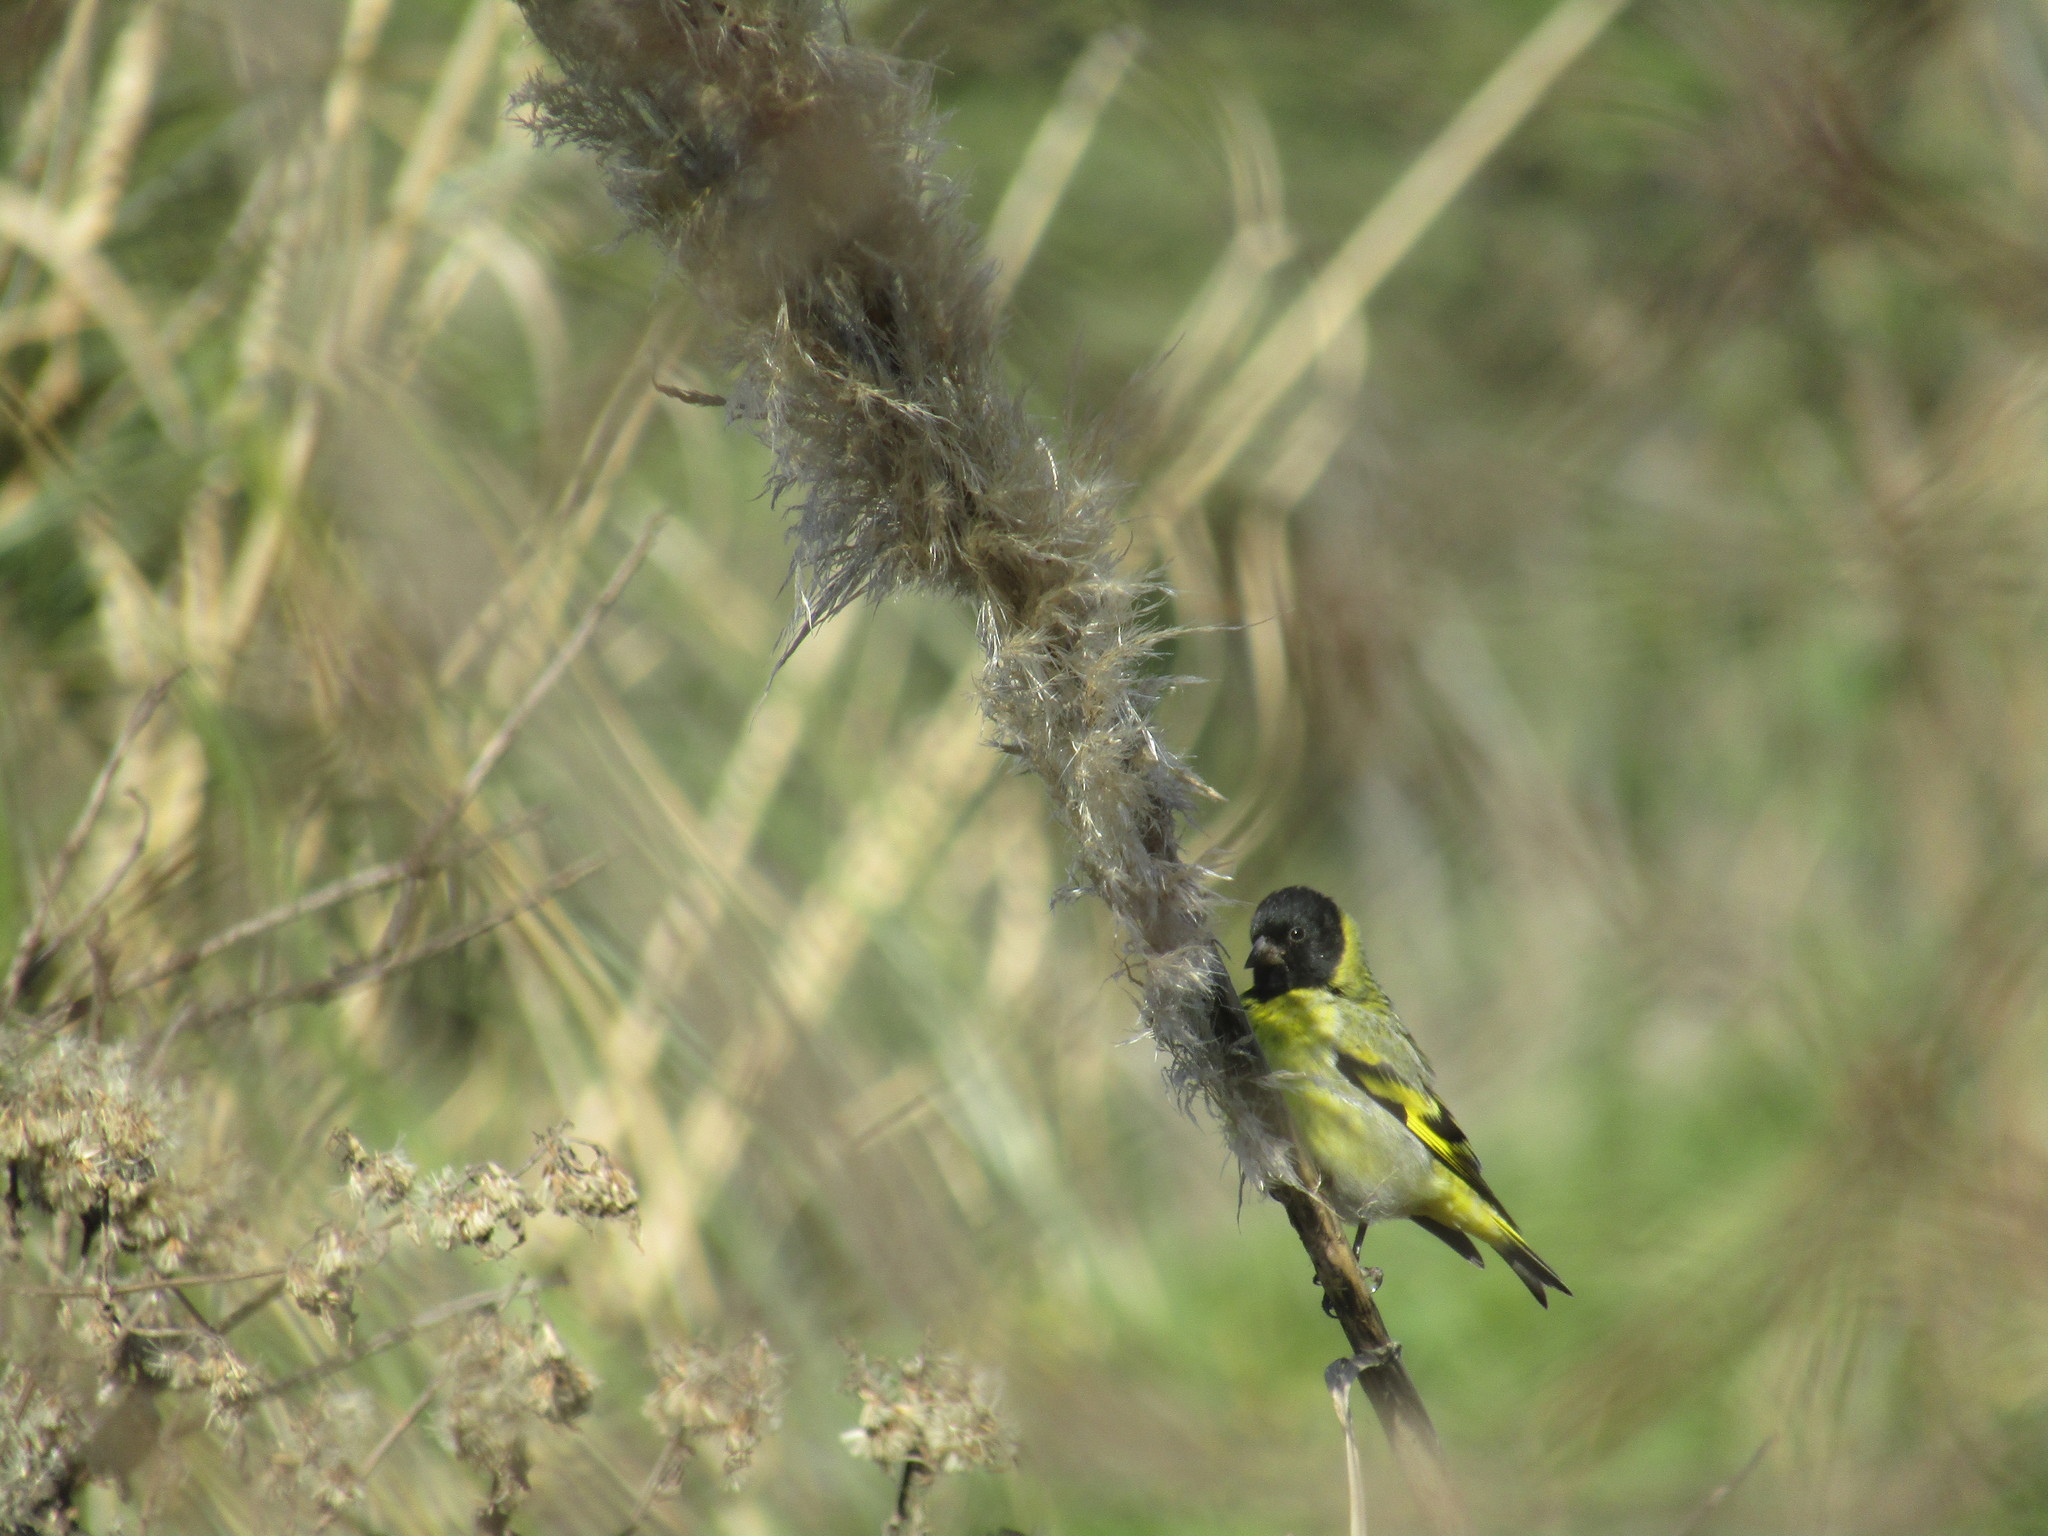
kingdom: Animalia
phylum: Chordata
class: Aves
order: Passeriformes
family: Fringillidae
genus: Spinus
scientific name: Spinus magellanicus
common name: Hooded siskin
